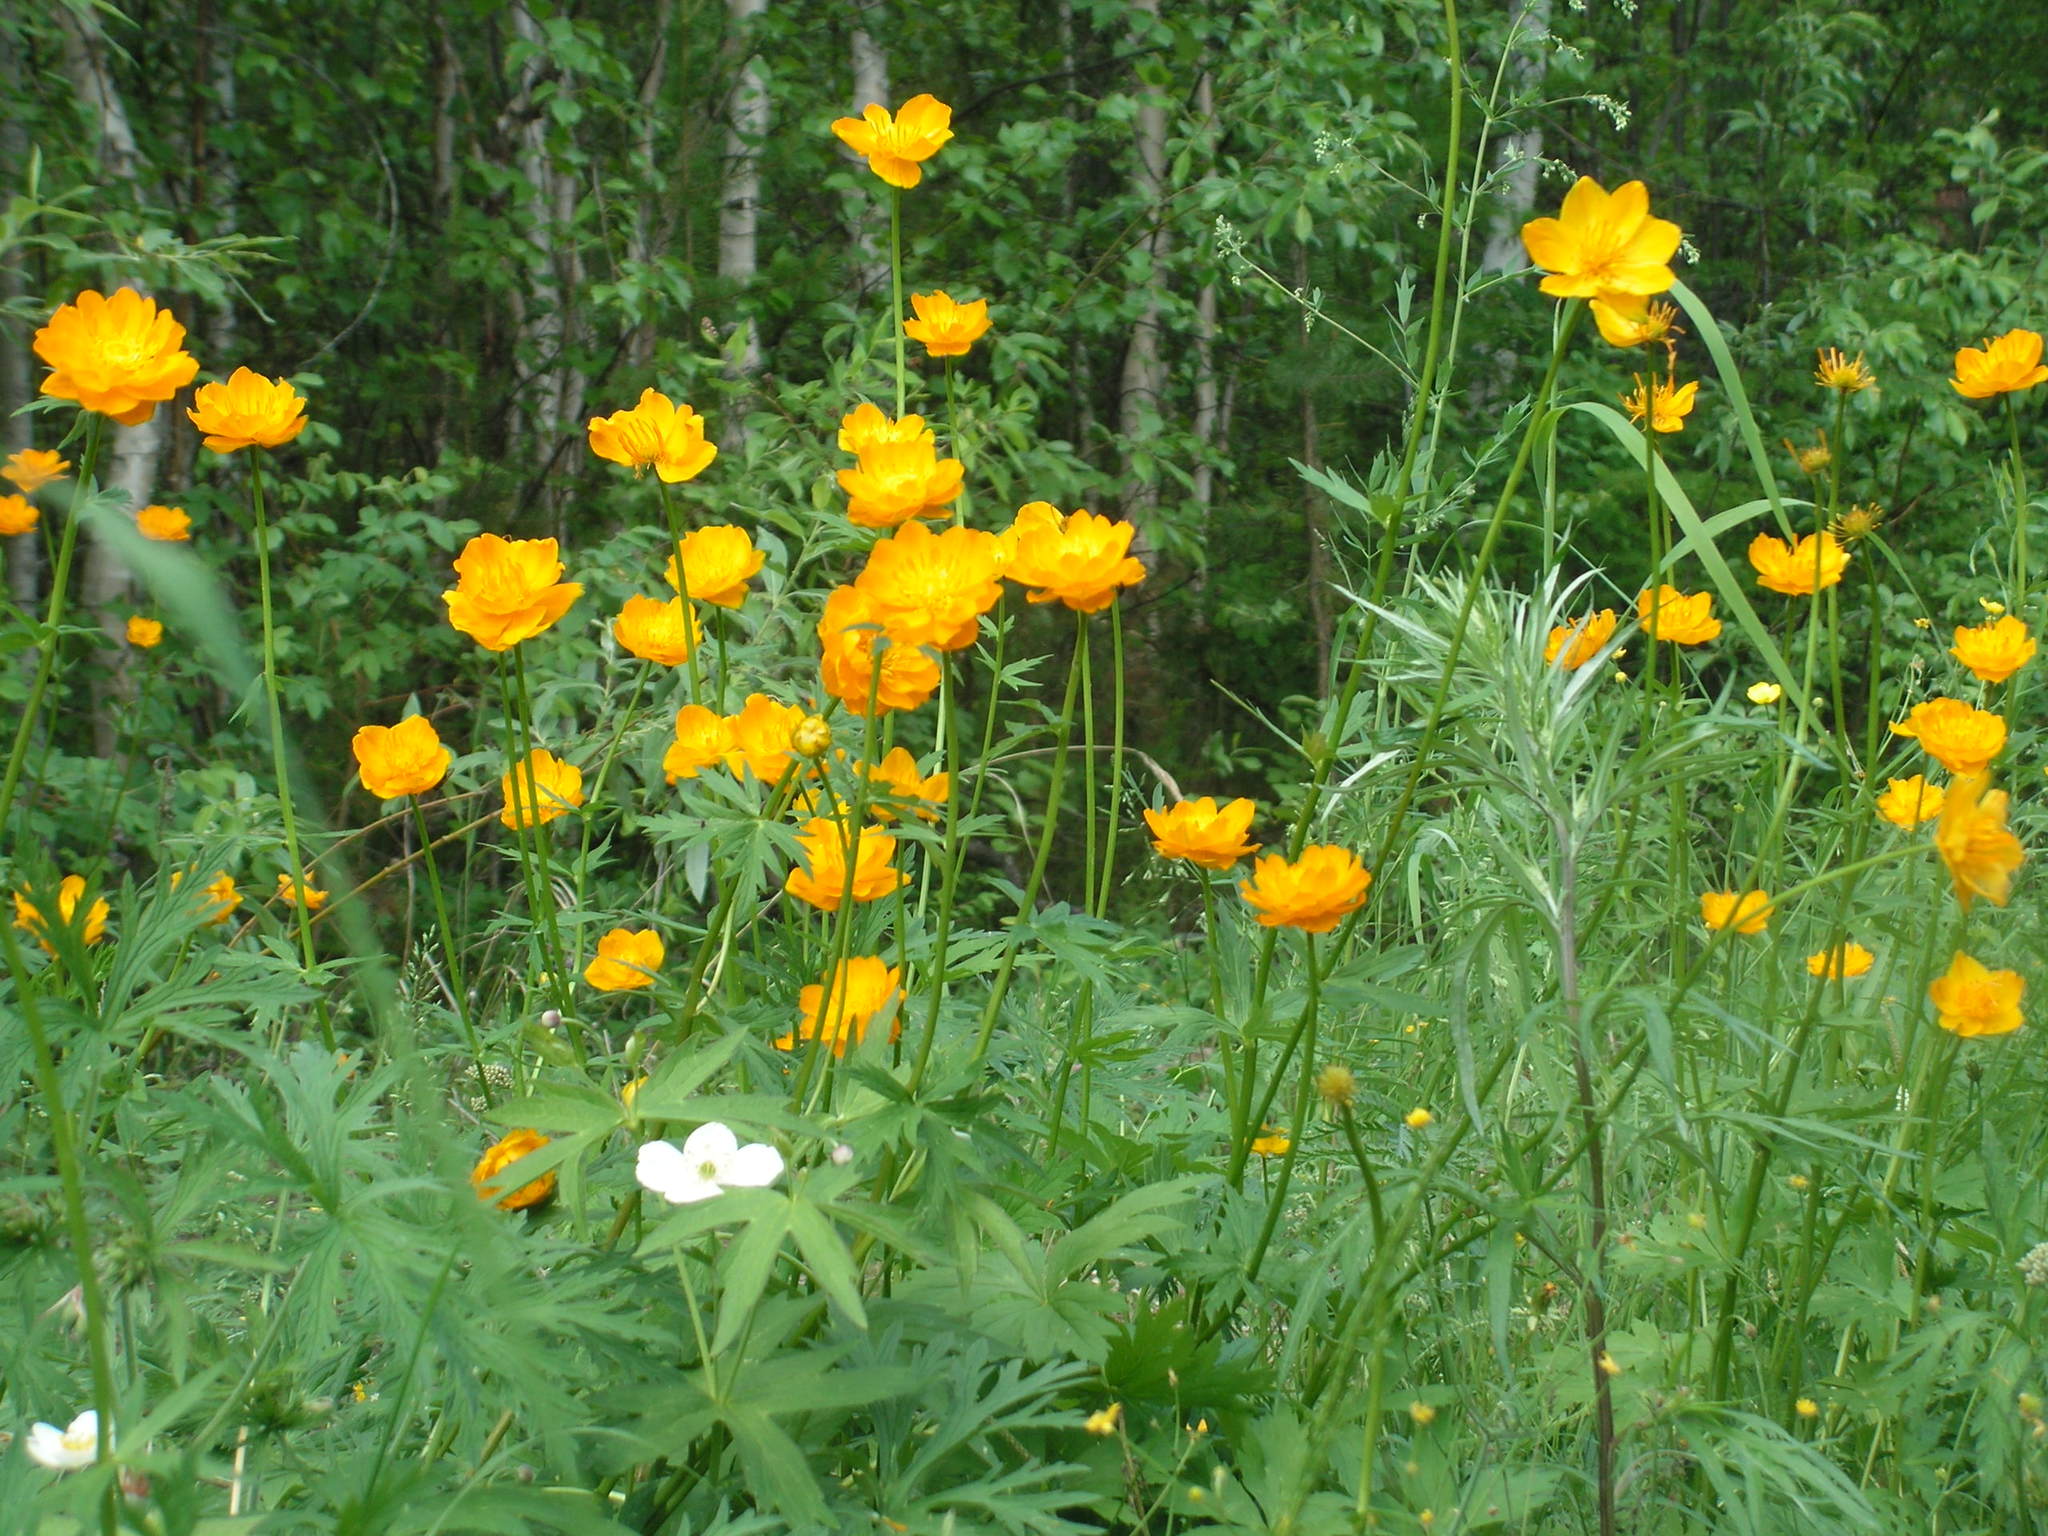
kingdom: Plantae
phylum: Tracheophyta
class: Magnoliopsida
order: Ranunculales
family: Ranunculaceae
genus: Trollius
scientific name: Trollius asiaticus
